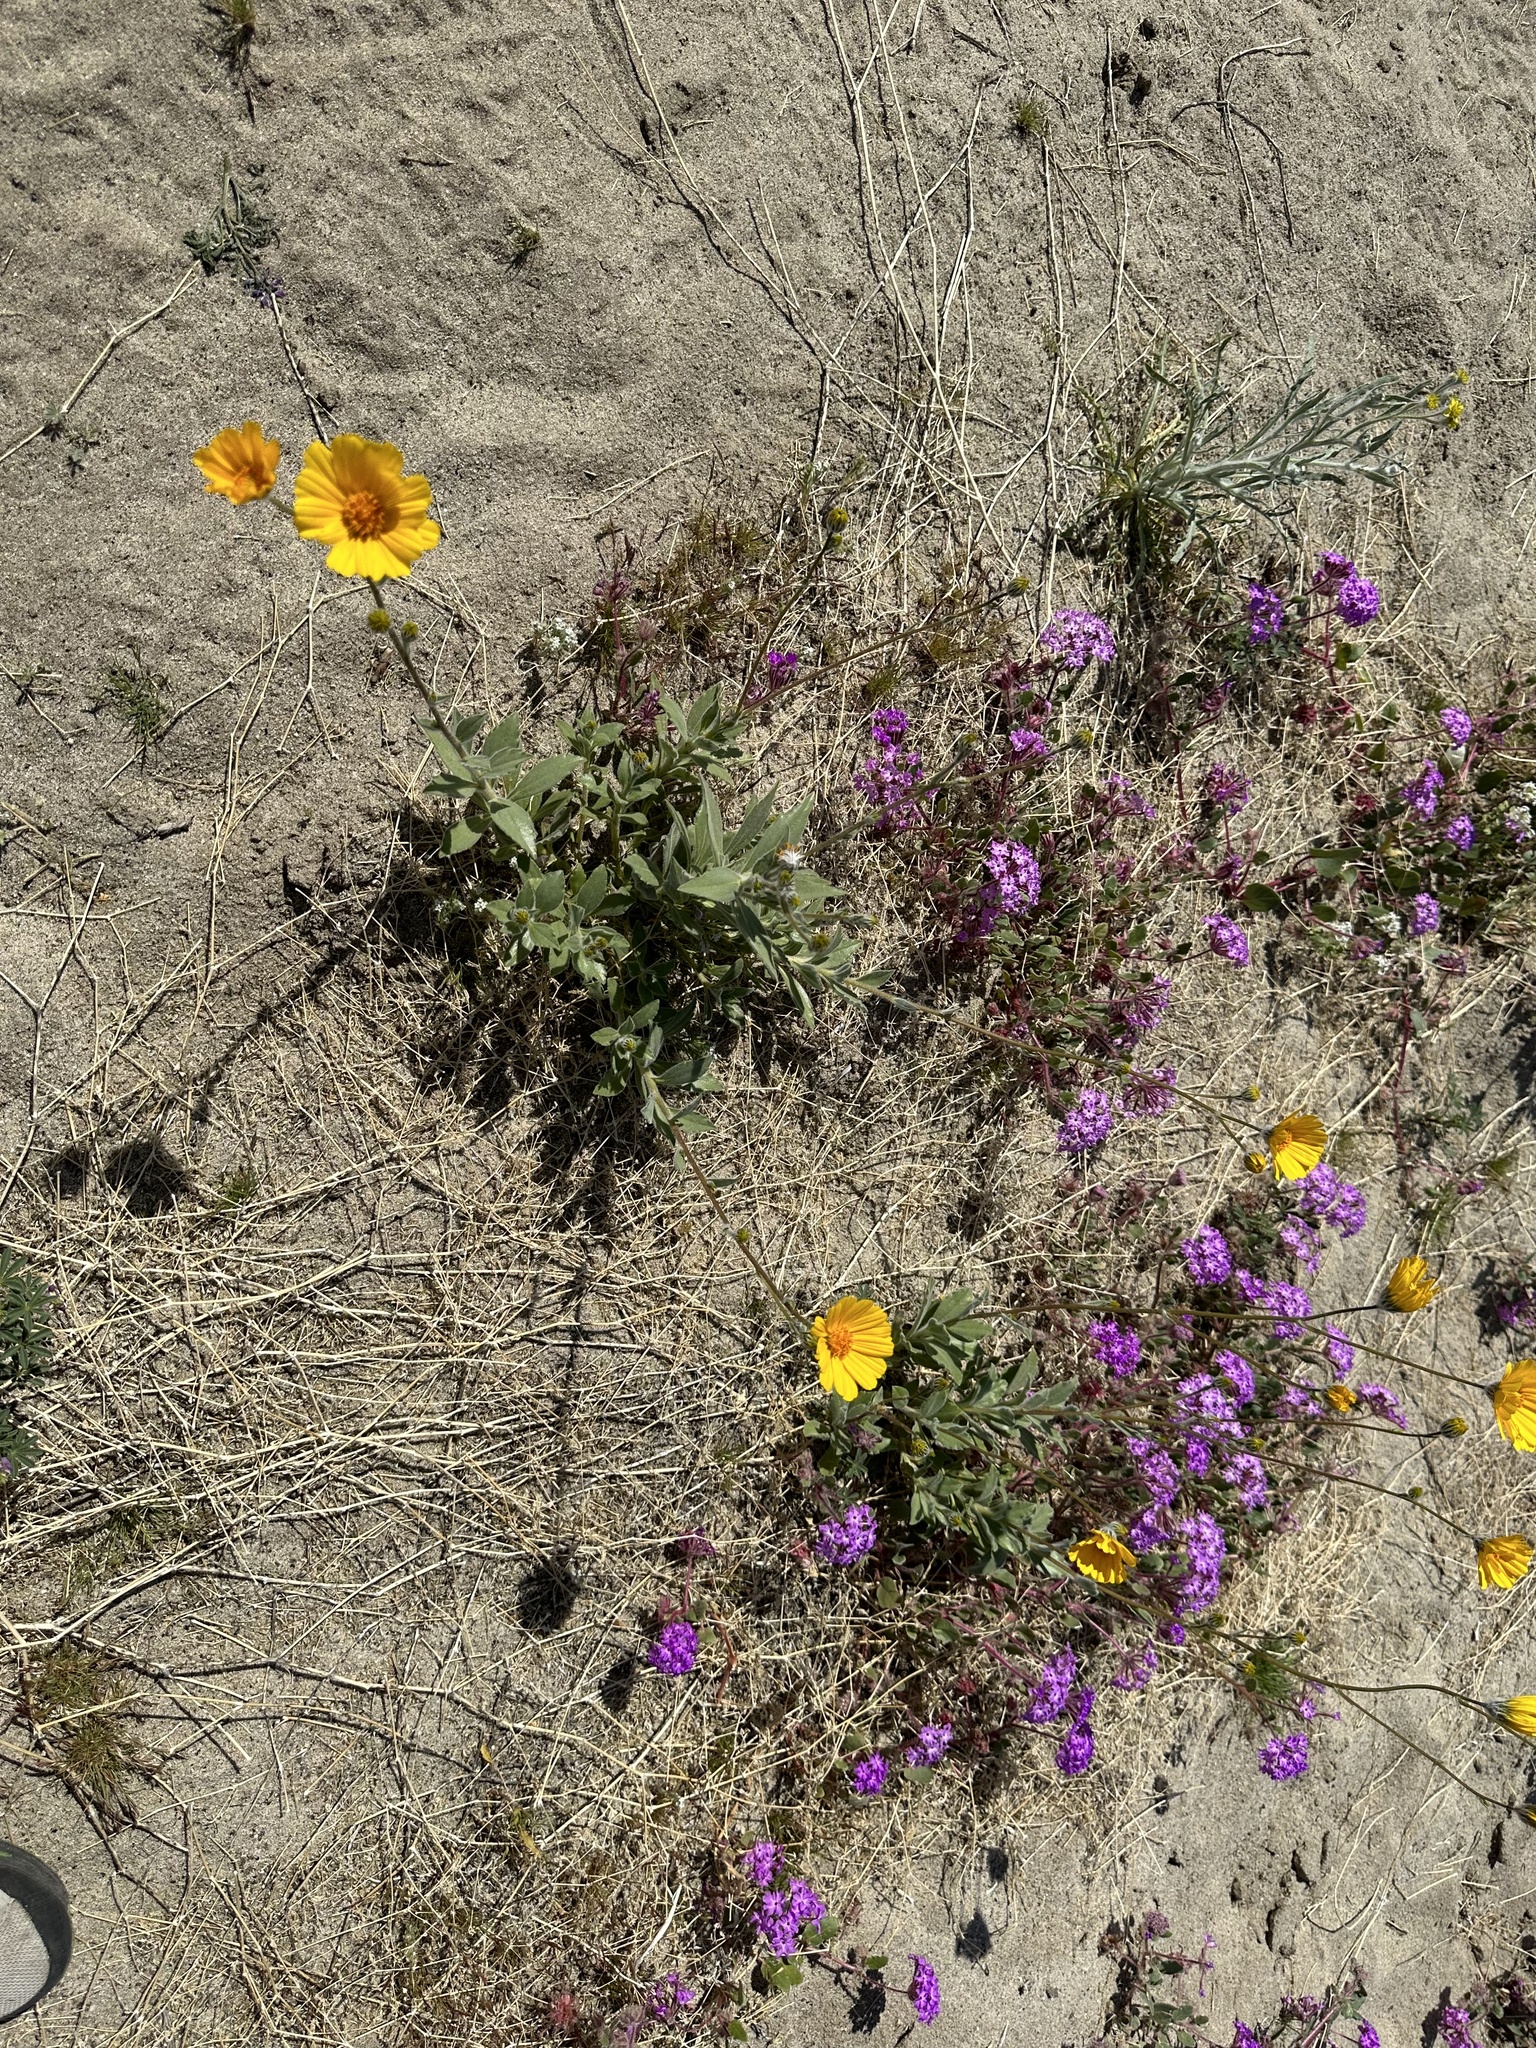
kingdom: Plantae
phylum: Tracheophyta
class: Magnoliopsida
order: Asterales
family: Asteraceae
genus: Geraea
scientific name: Geraea canescens
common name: Desert-gold
